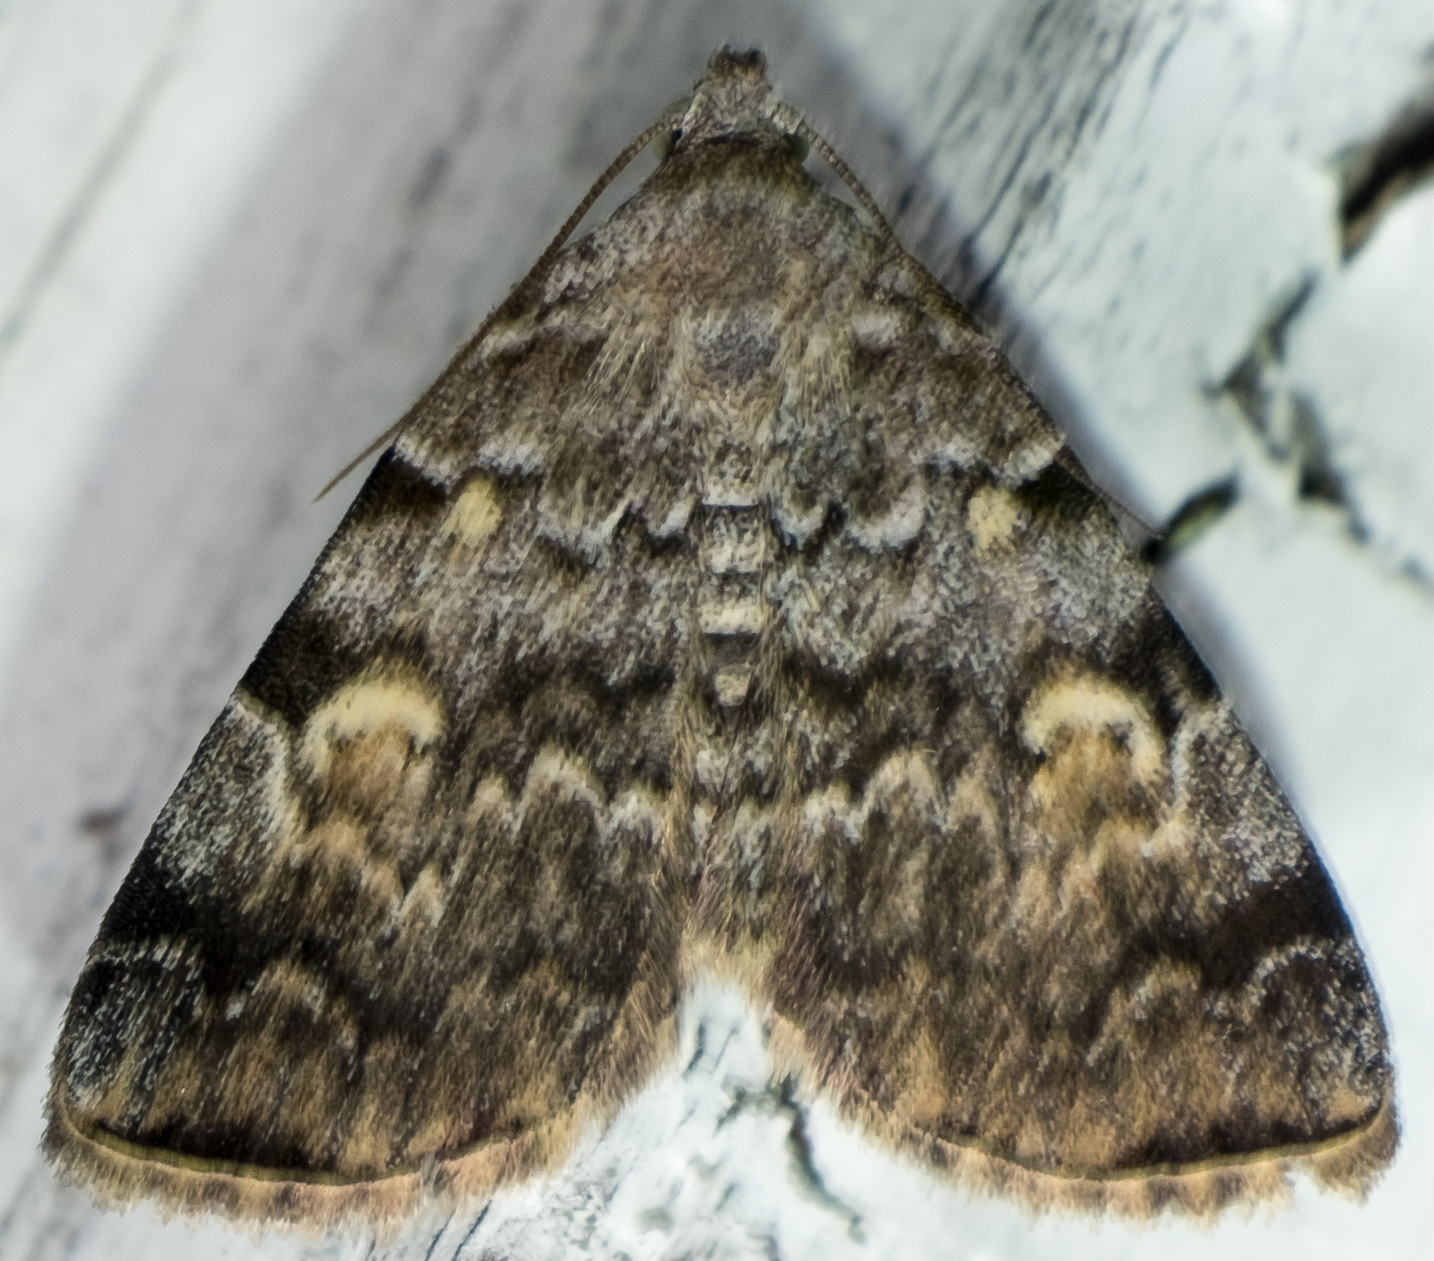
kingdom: Animalia
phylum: Arthropoda
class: Insecta
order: Lepidoptera
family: Erebidae
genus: Idia
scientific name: Idia americalis
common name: American idia moth
